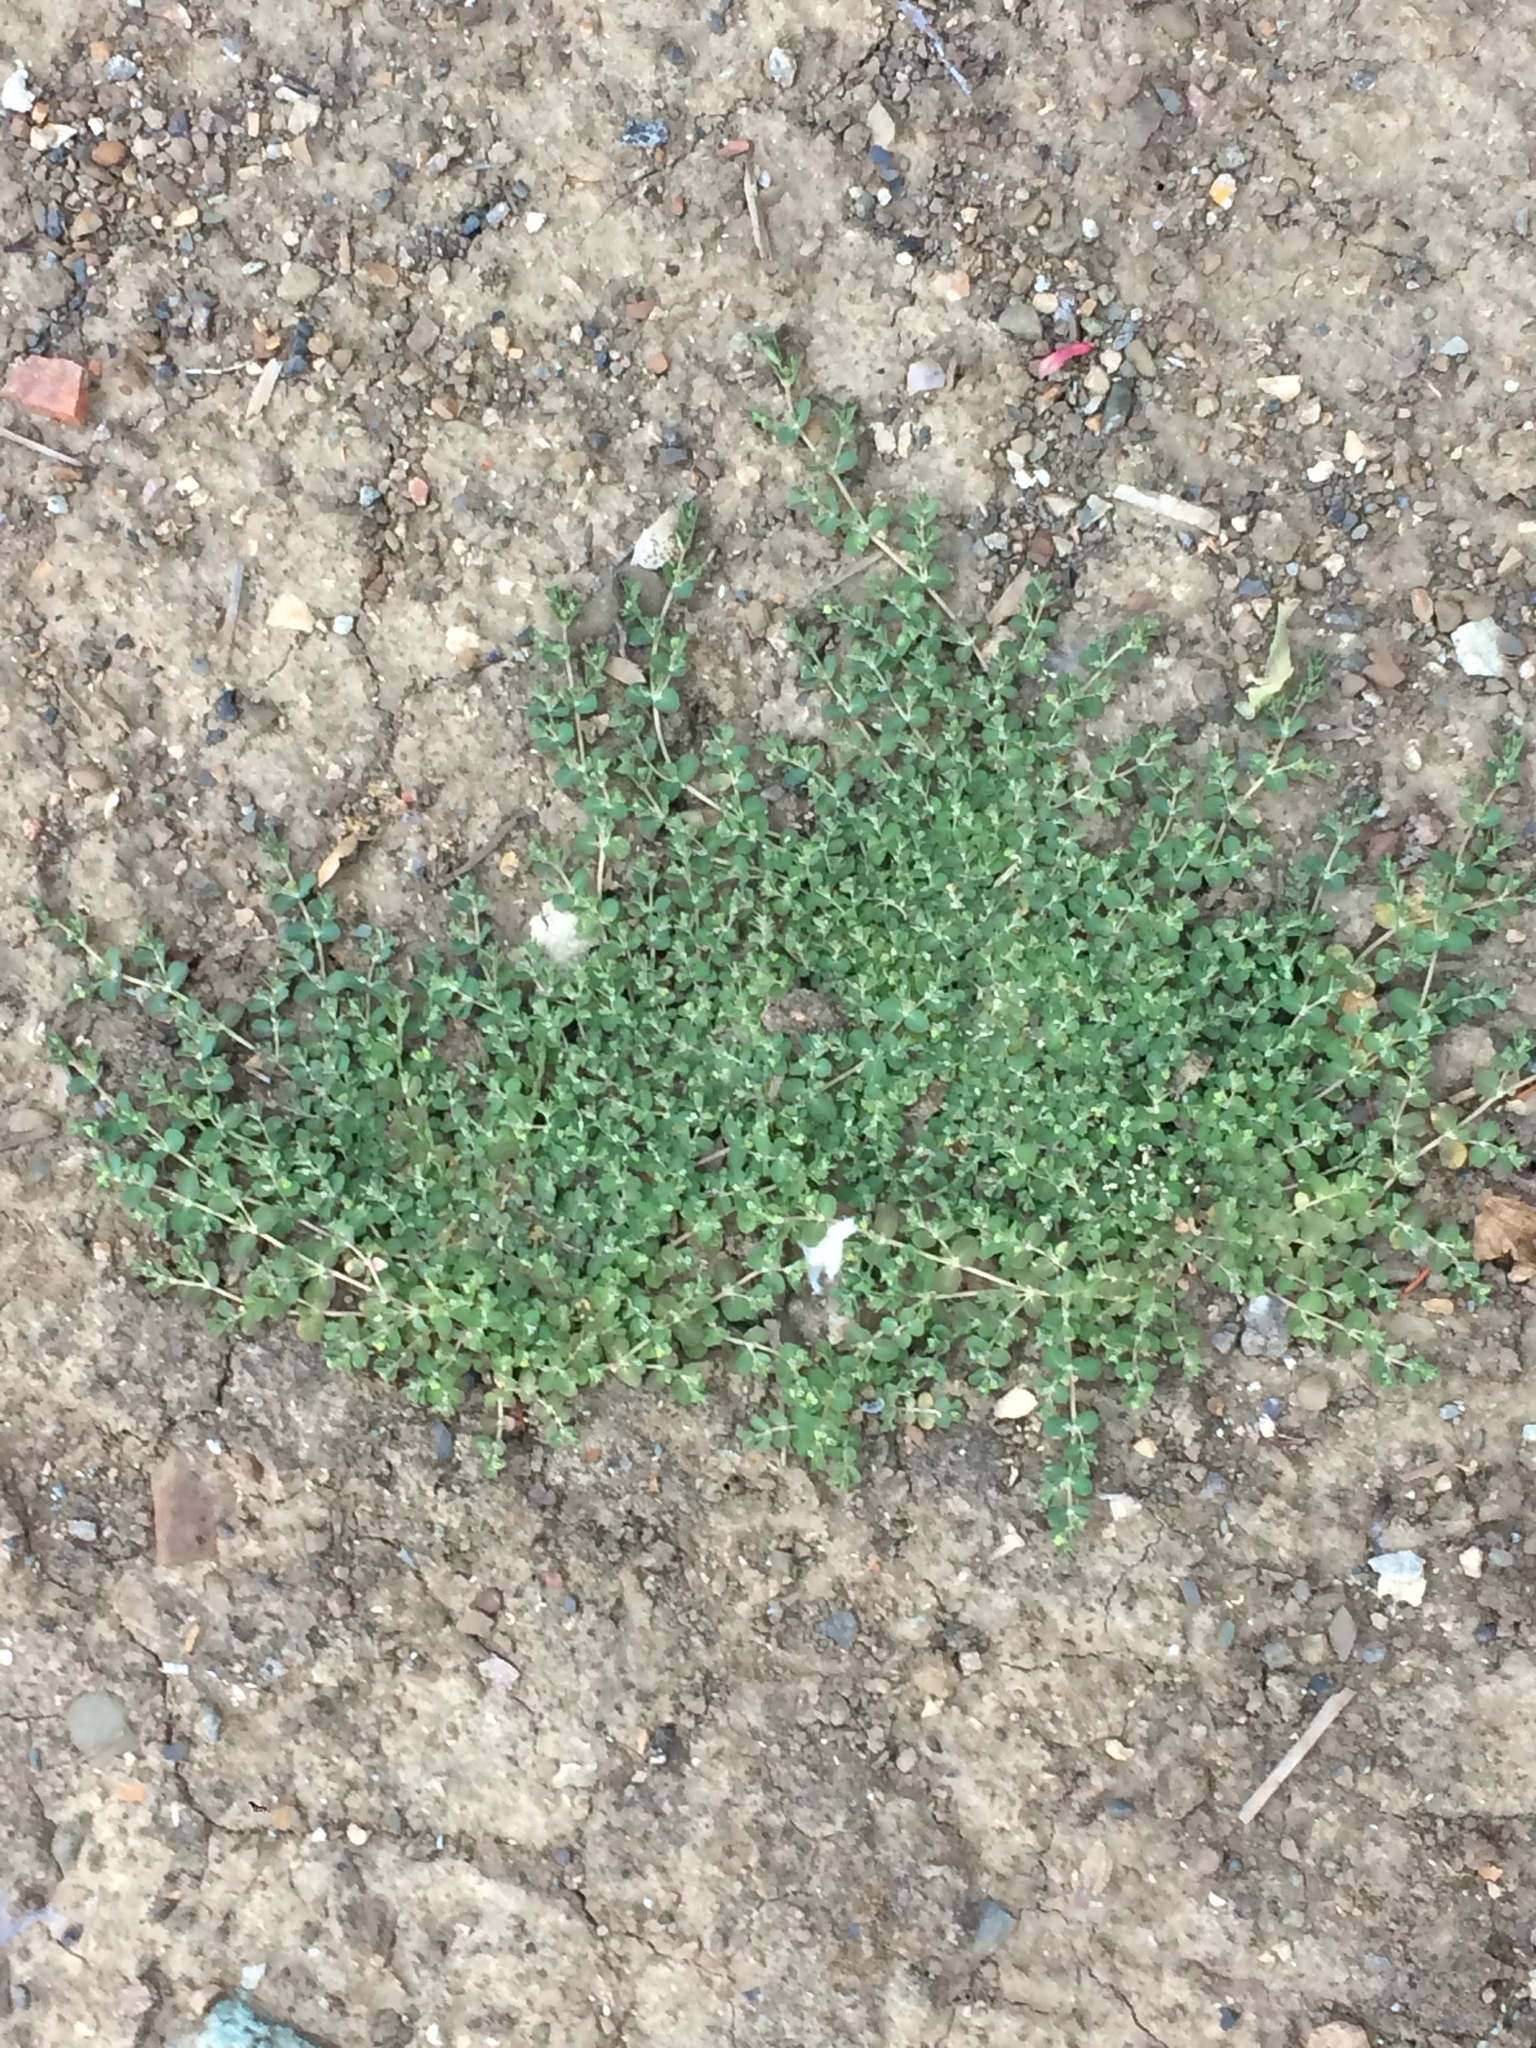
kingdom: Plantae
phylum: Tracheophyta
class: Magnoliopsida
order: Malpighiales
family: Euphorbiaceae
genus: Euphorbia
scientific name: Euphorbia serpens
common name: Matted sandmat
